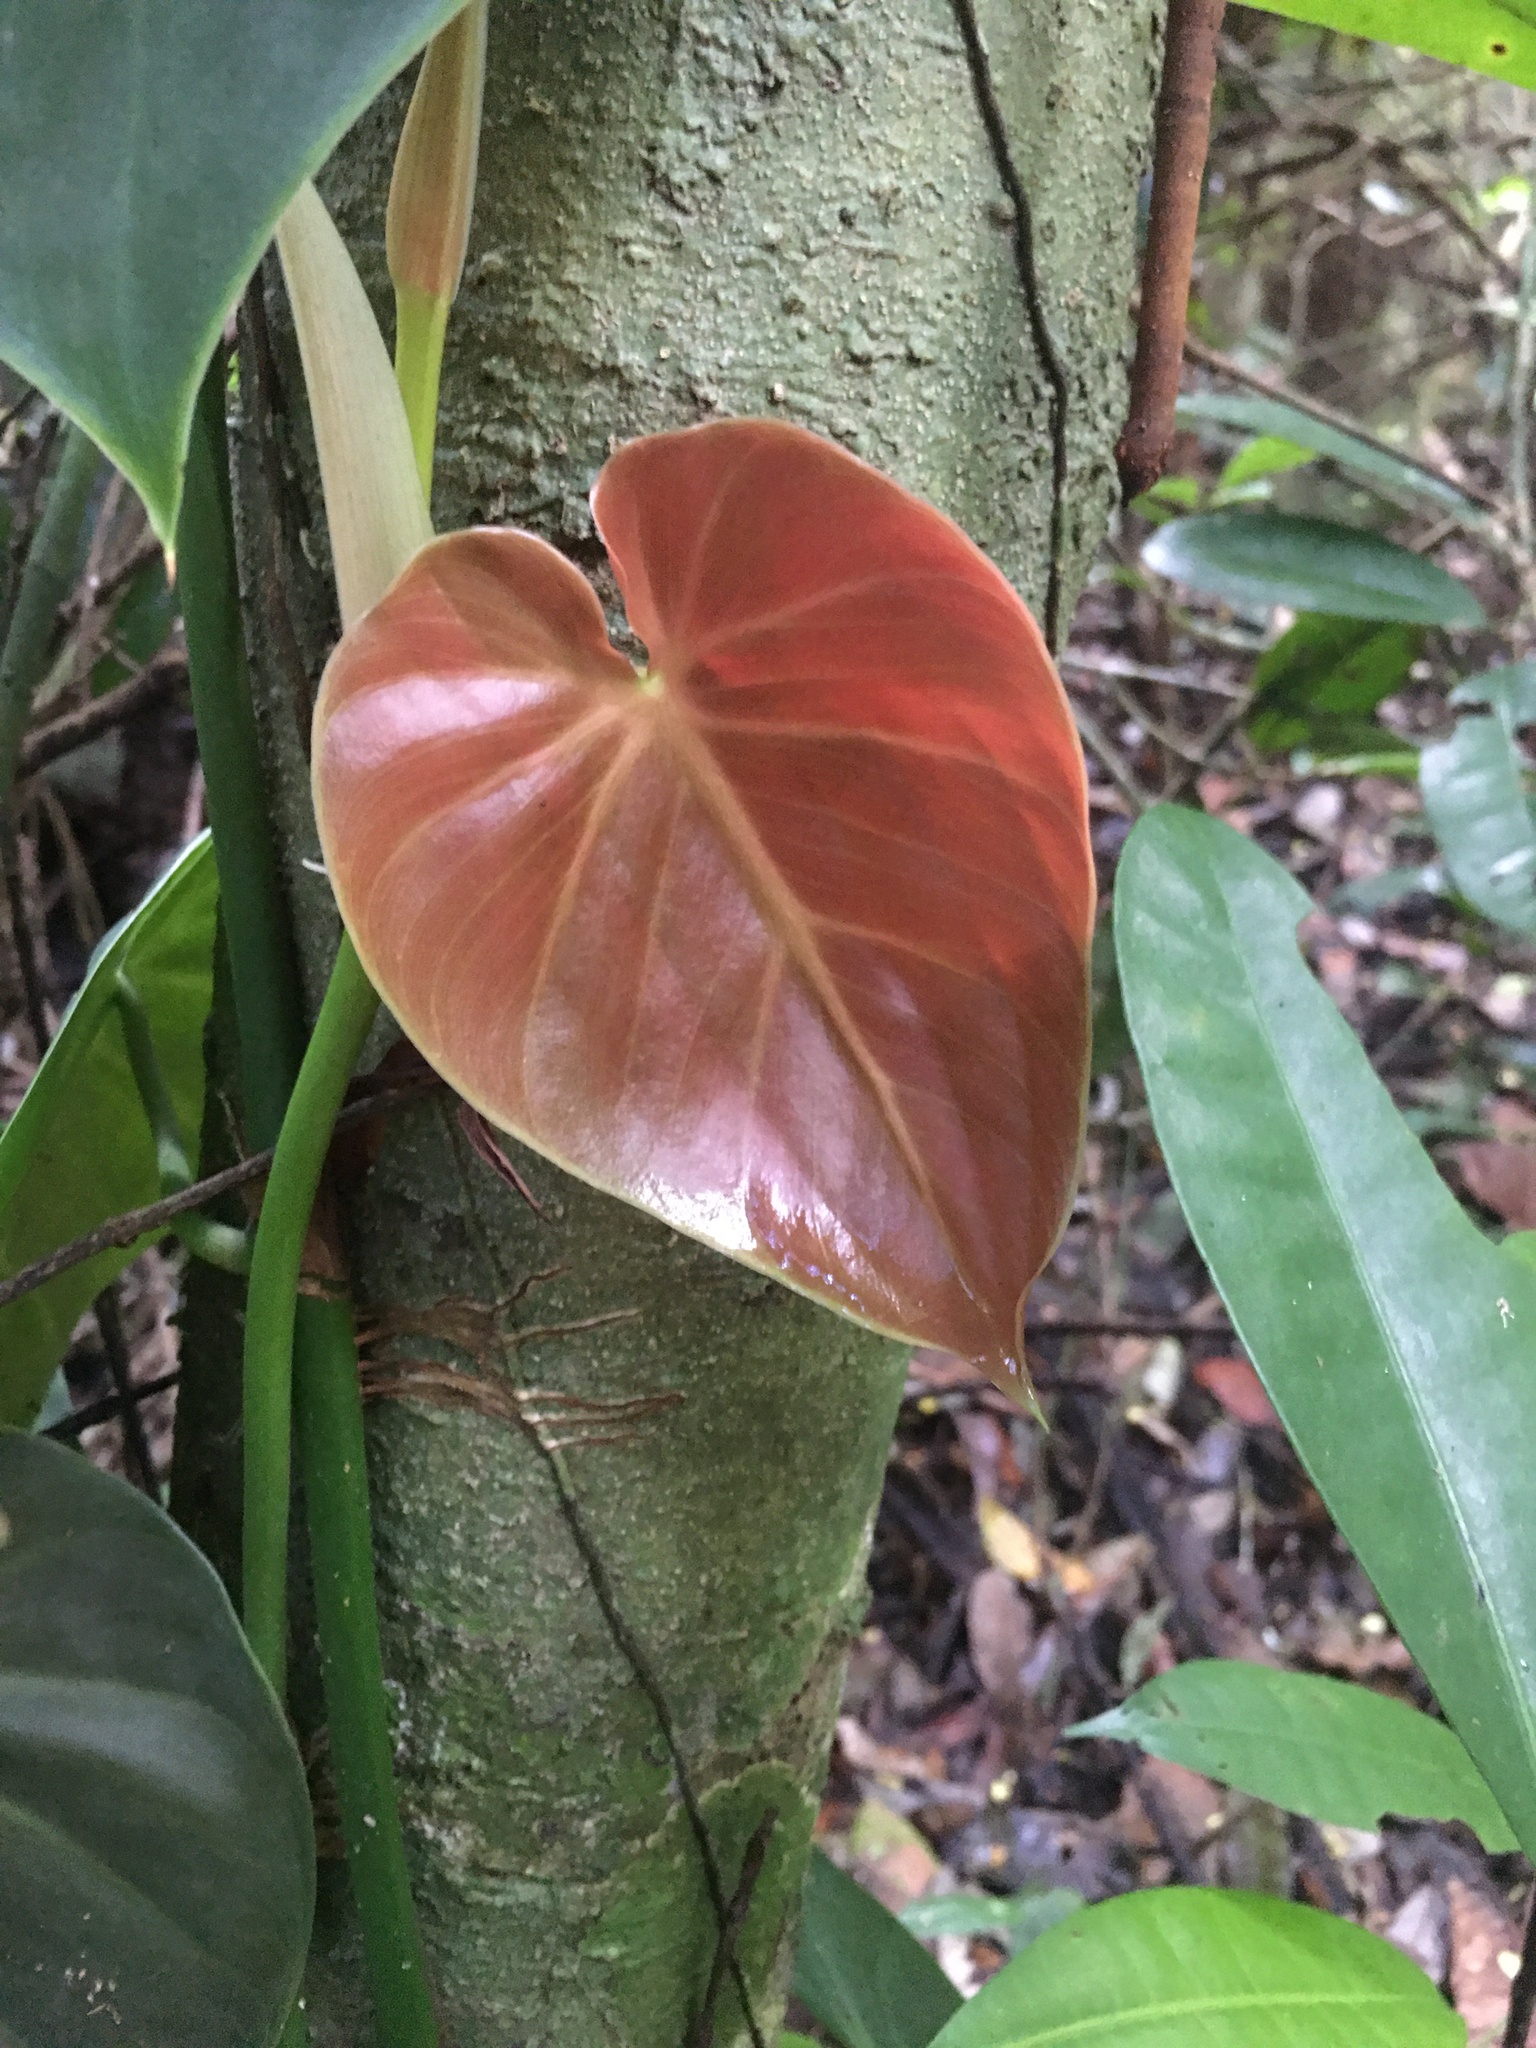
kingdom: Plantae
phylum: Tracheophyta
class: Liliopsida
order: Alismatales
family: Araceae
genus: Philodendron
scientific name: Philodendron hederaceum
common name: Vilevine
